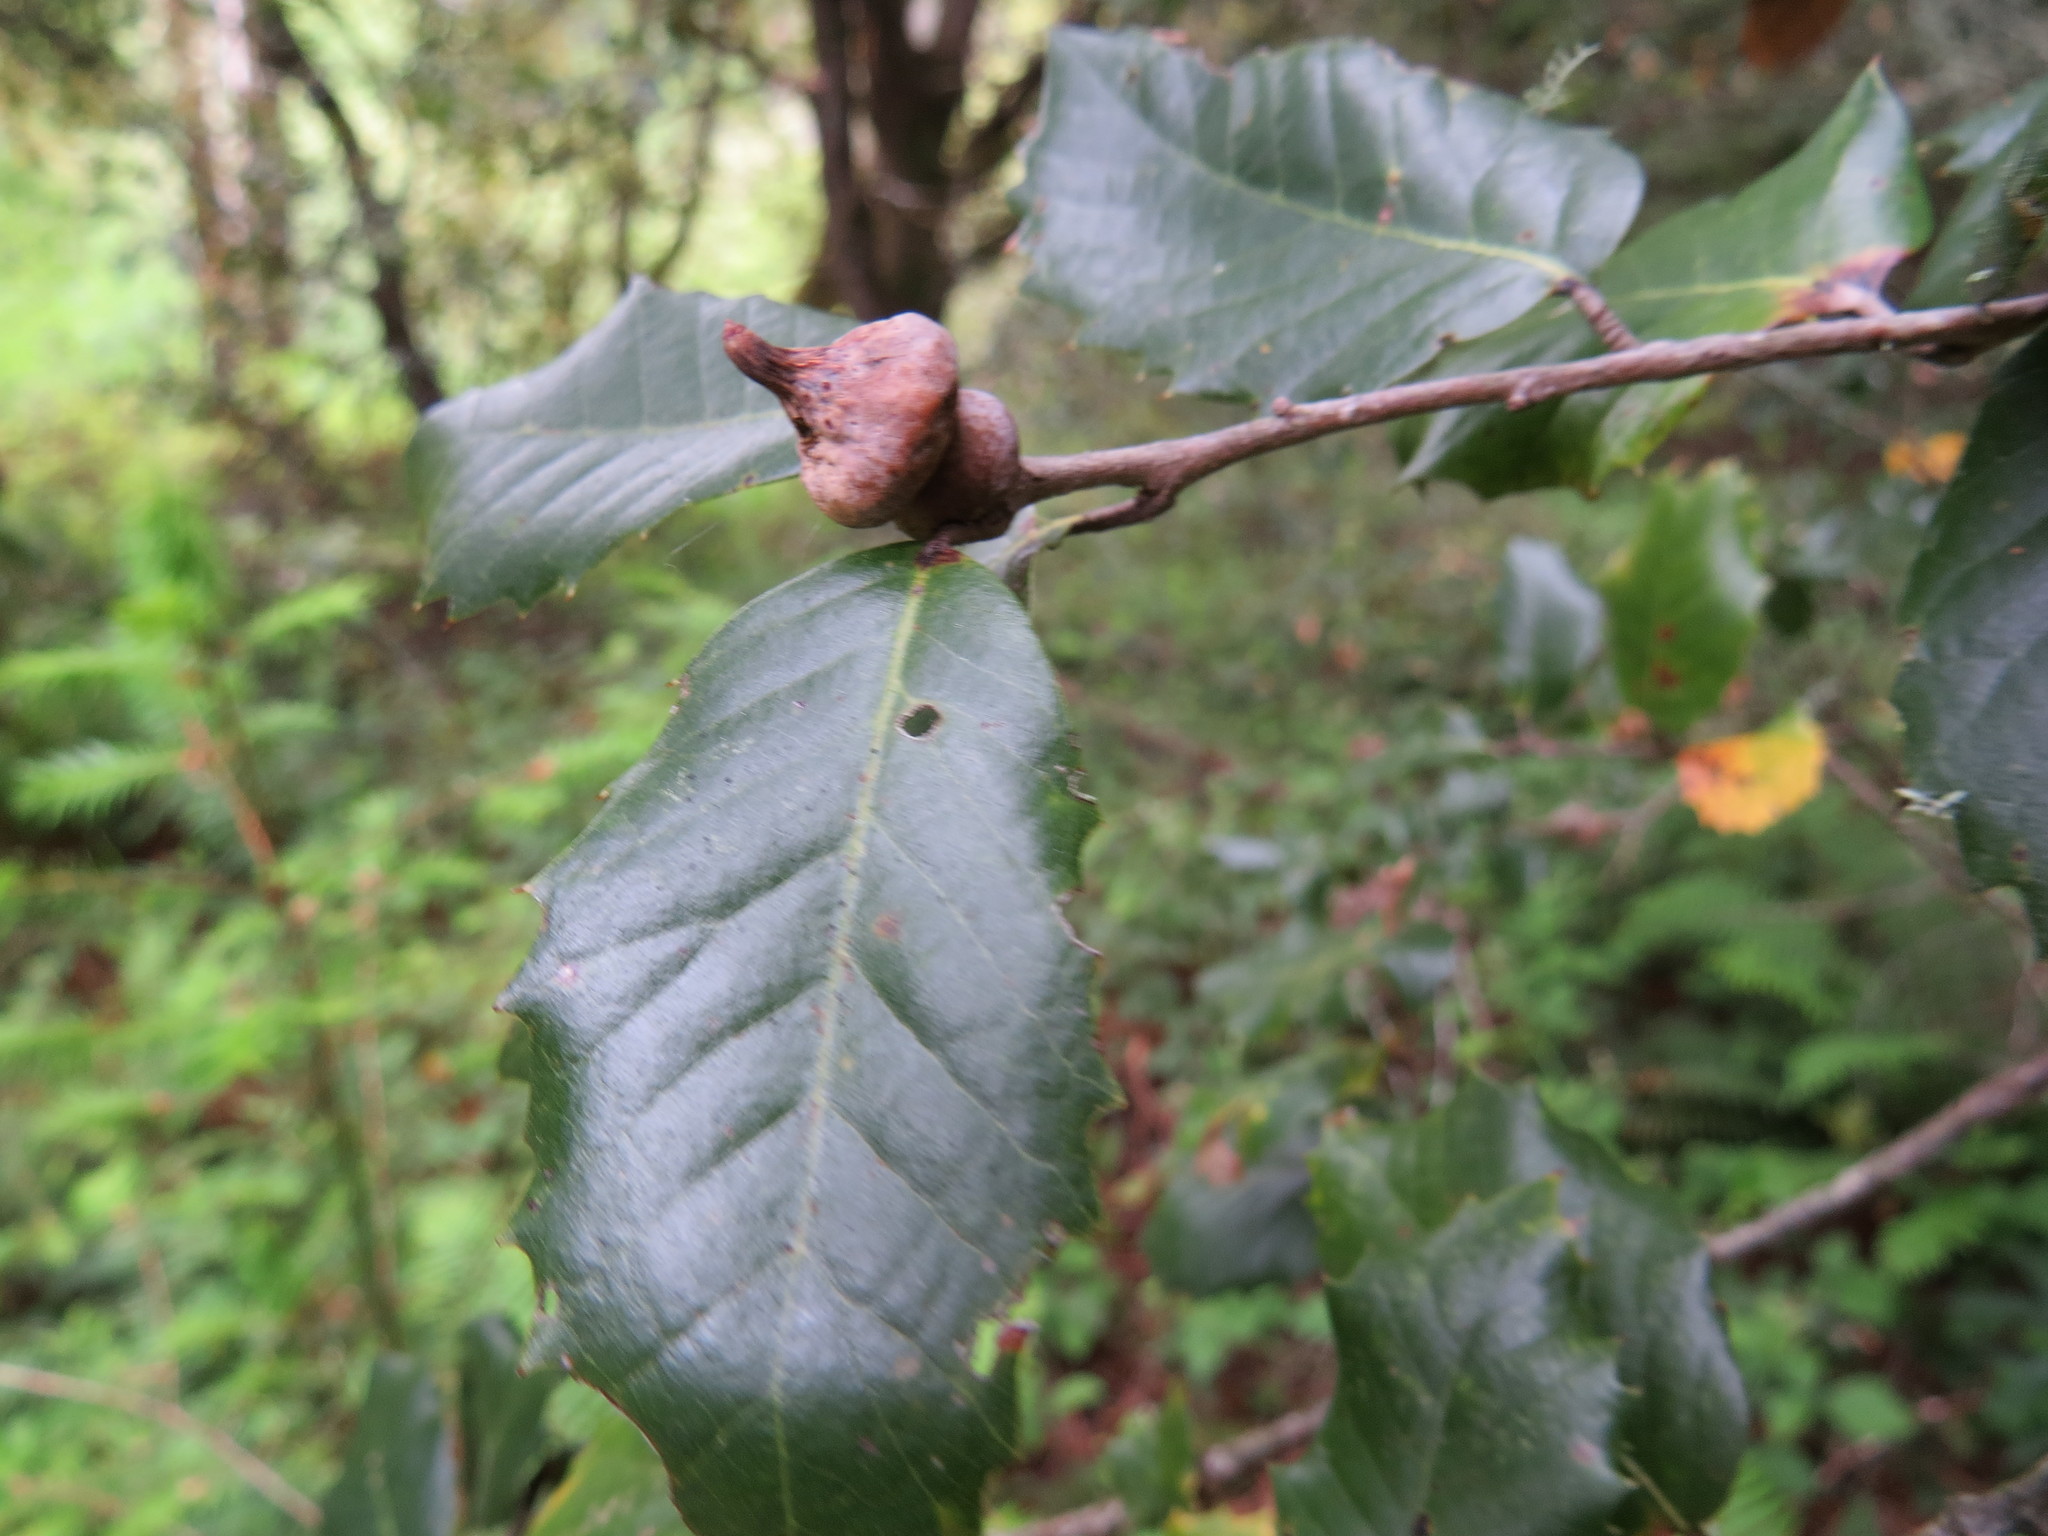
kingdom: Animalia
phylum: Arthropoda
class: Insecta
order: Hymenoptera
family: Cynipidae
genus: Heteroecus
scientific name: Heteroecus
